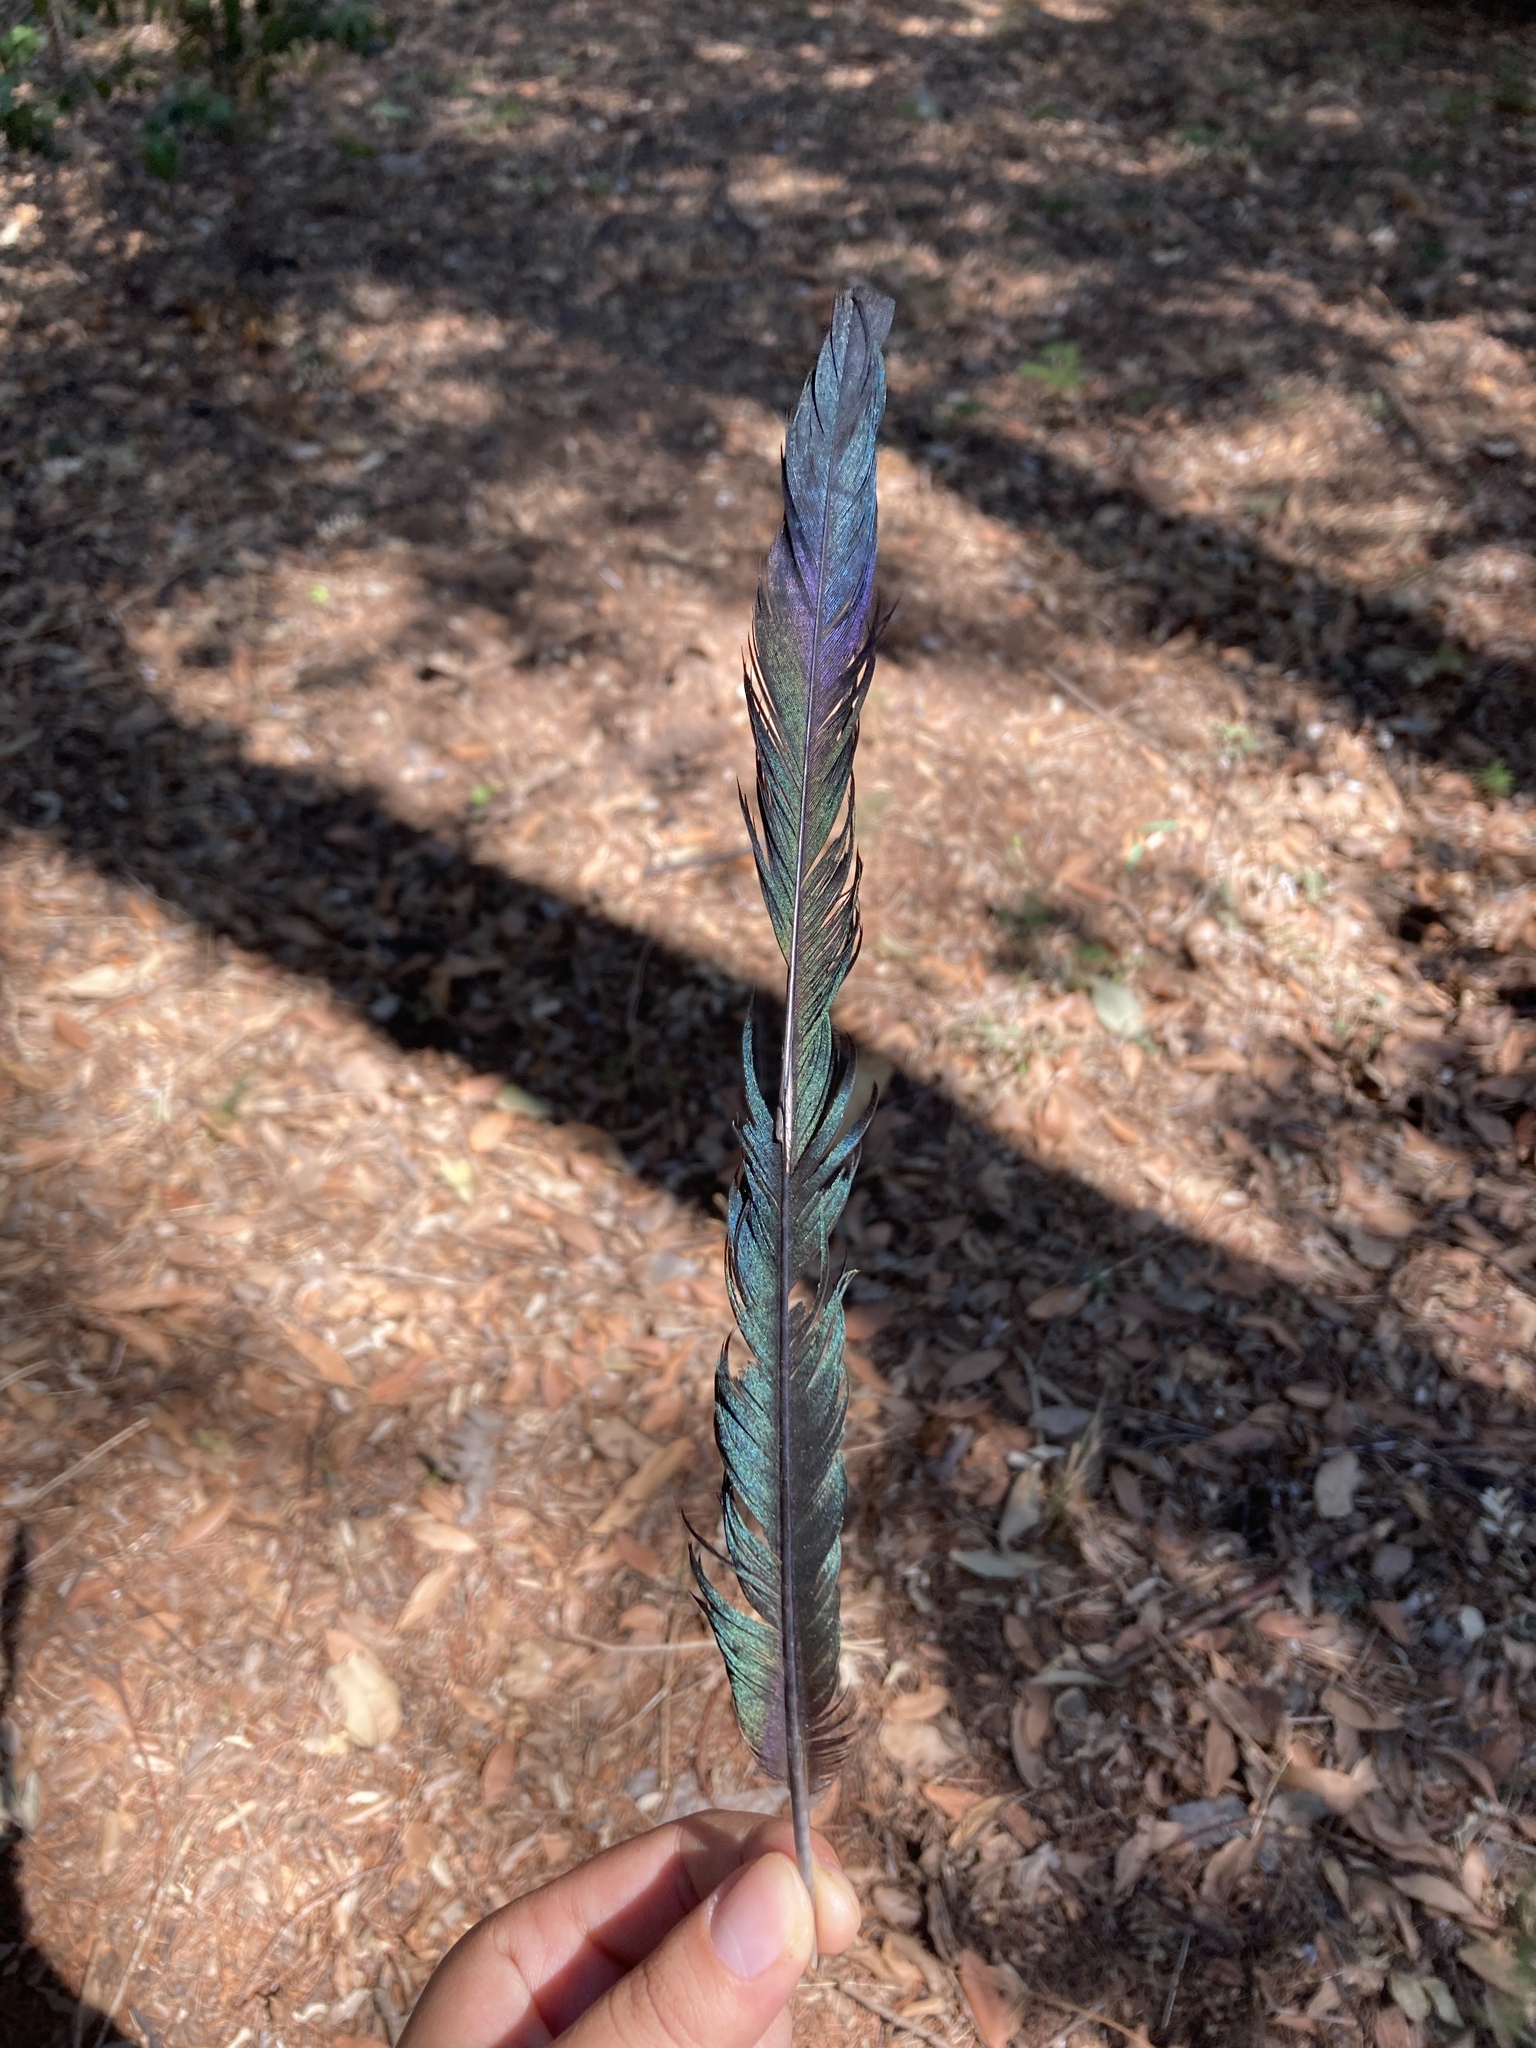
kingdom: Animalia
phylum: Chordata
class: Aves
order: Passeriformes
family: Corvidae
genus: Pica
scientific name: Pica pica
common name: Eurasian magpie
